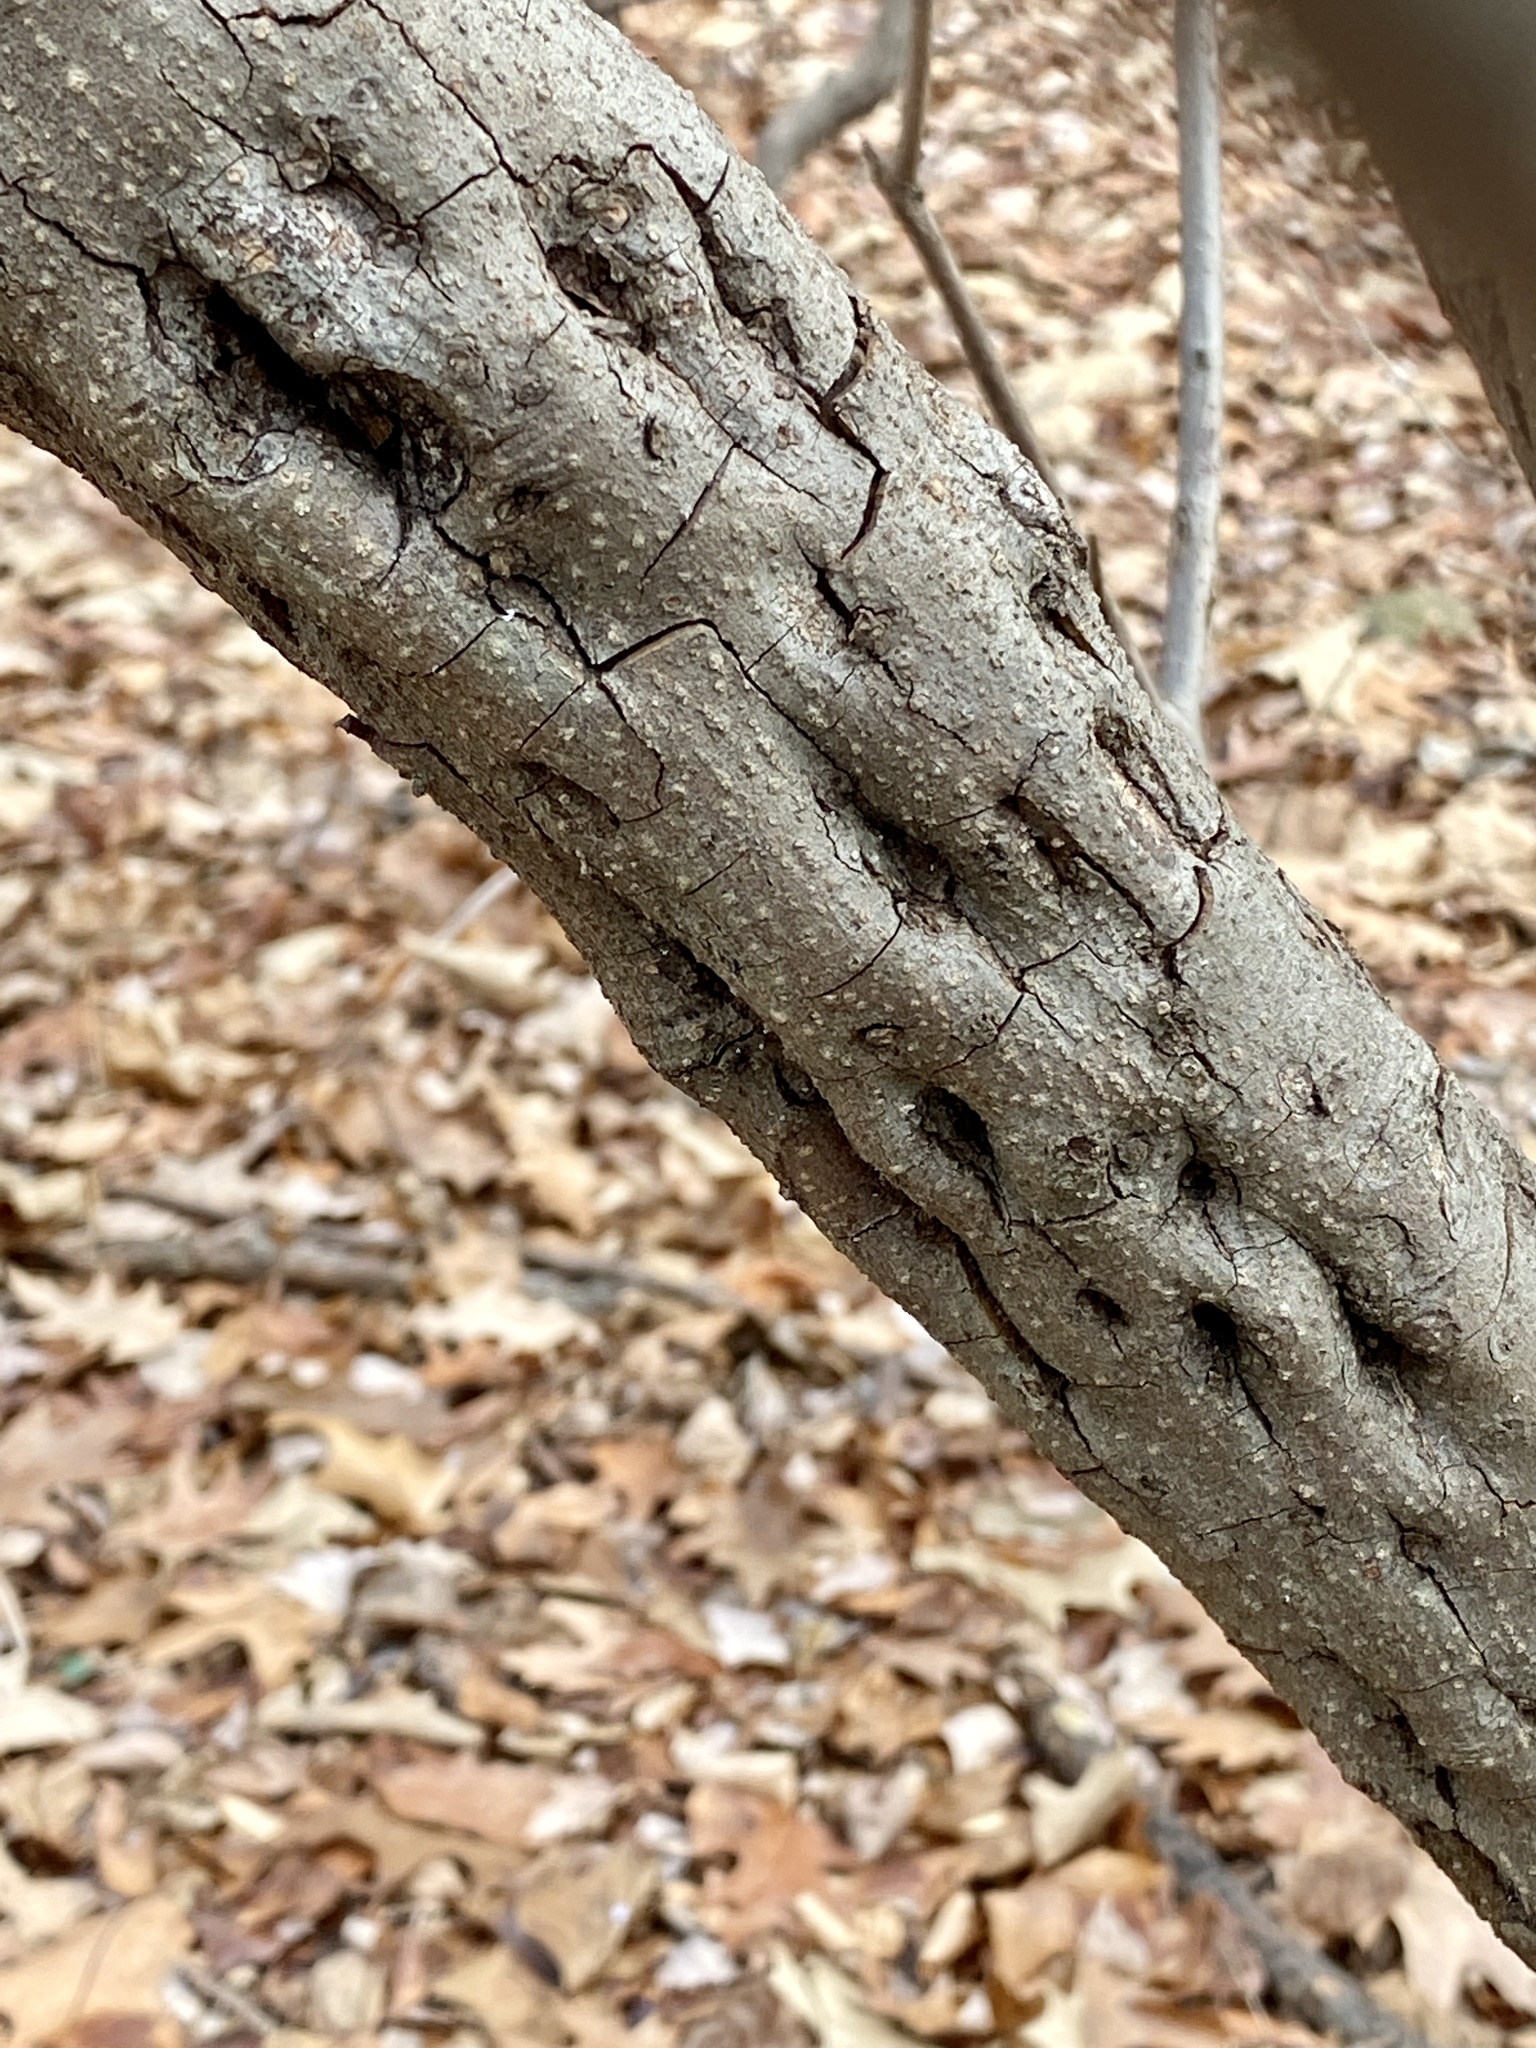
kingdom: Plantae
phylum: Tracheophyta
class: Magnoliopsida
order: Laurales
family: Lauraceae
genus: Lindera
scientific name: Lindera benzoin
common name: Spicebush
